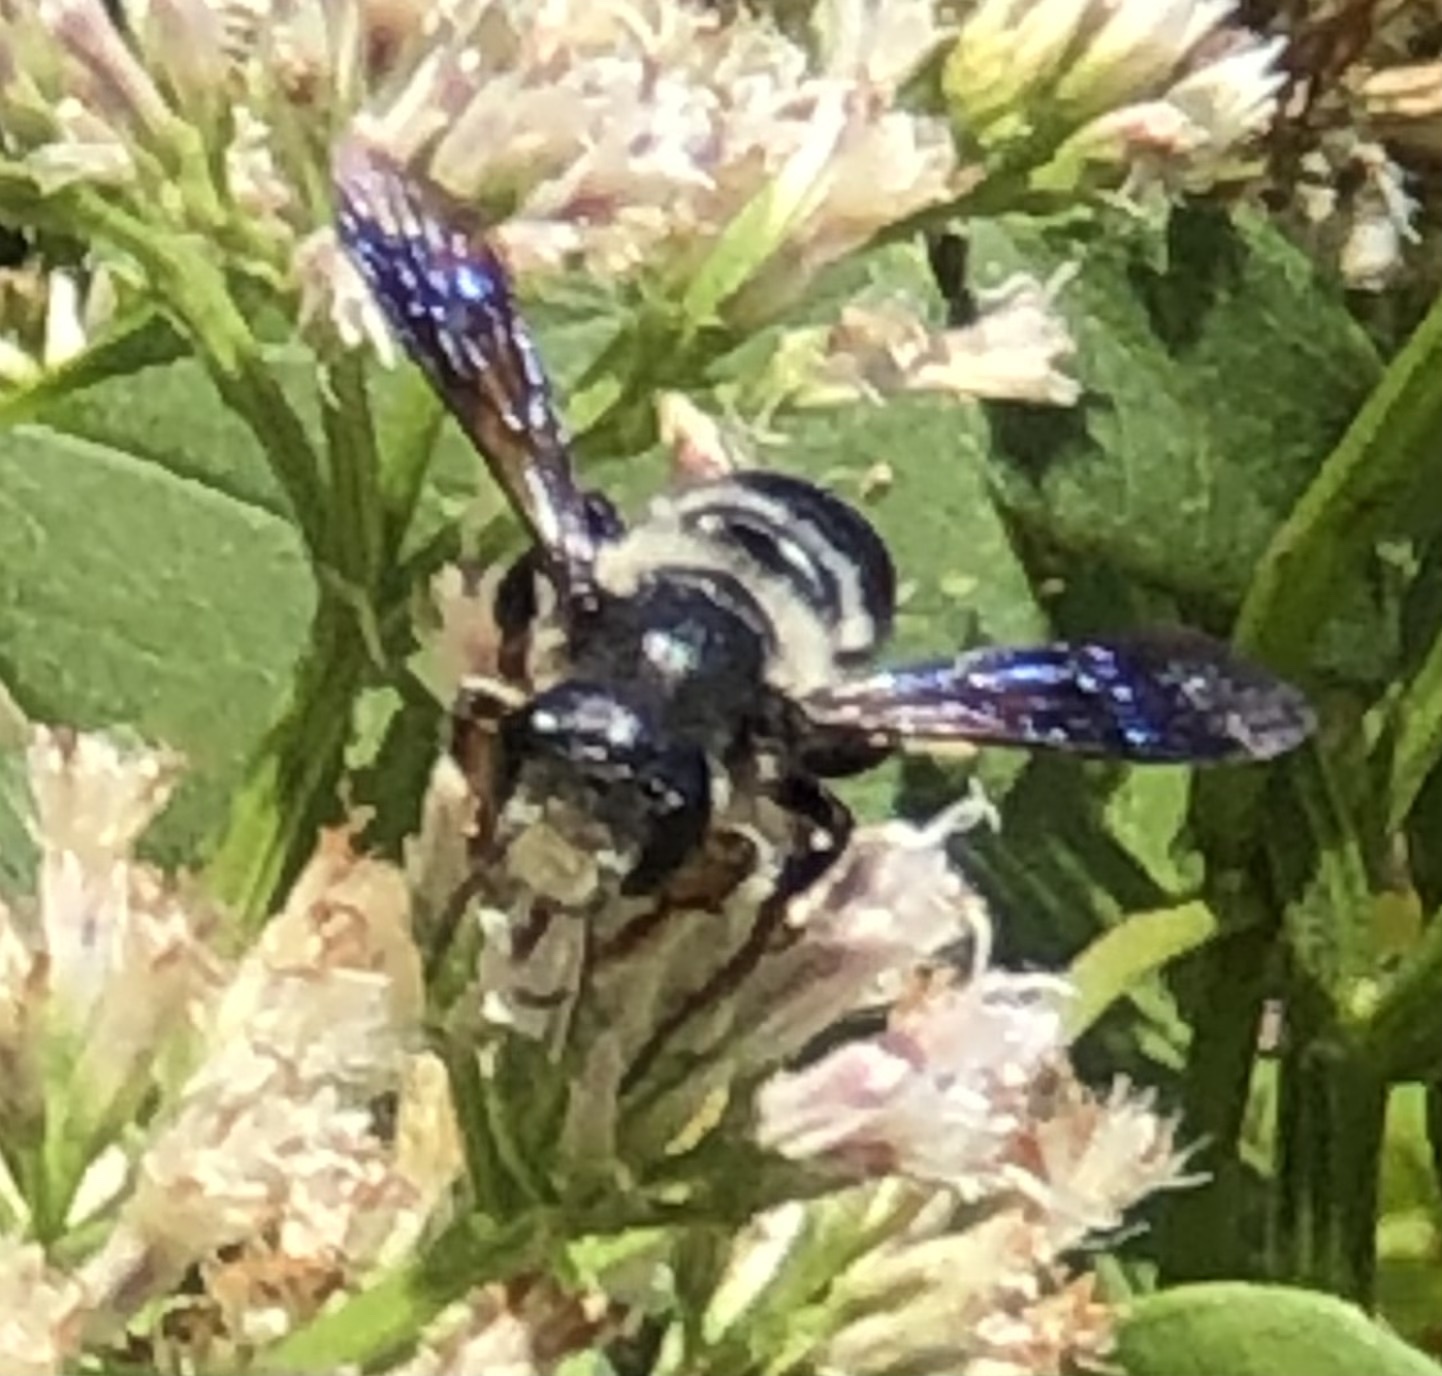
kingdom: Animalia
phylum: Arthropoda
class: Insecta
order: Hymenoptera
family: Megachilidae
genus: Megachile
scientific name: Megachile xylocopoides
